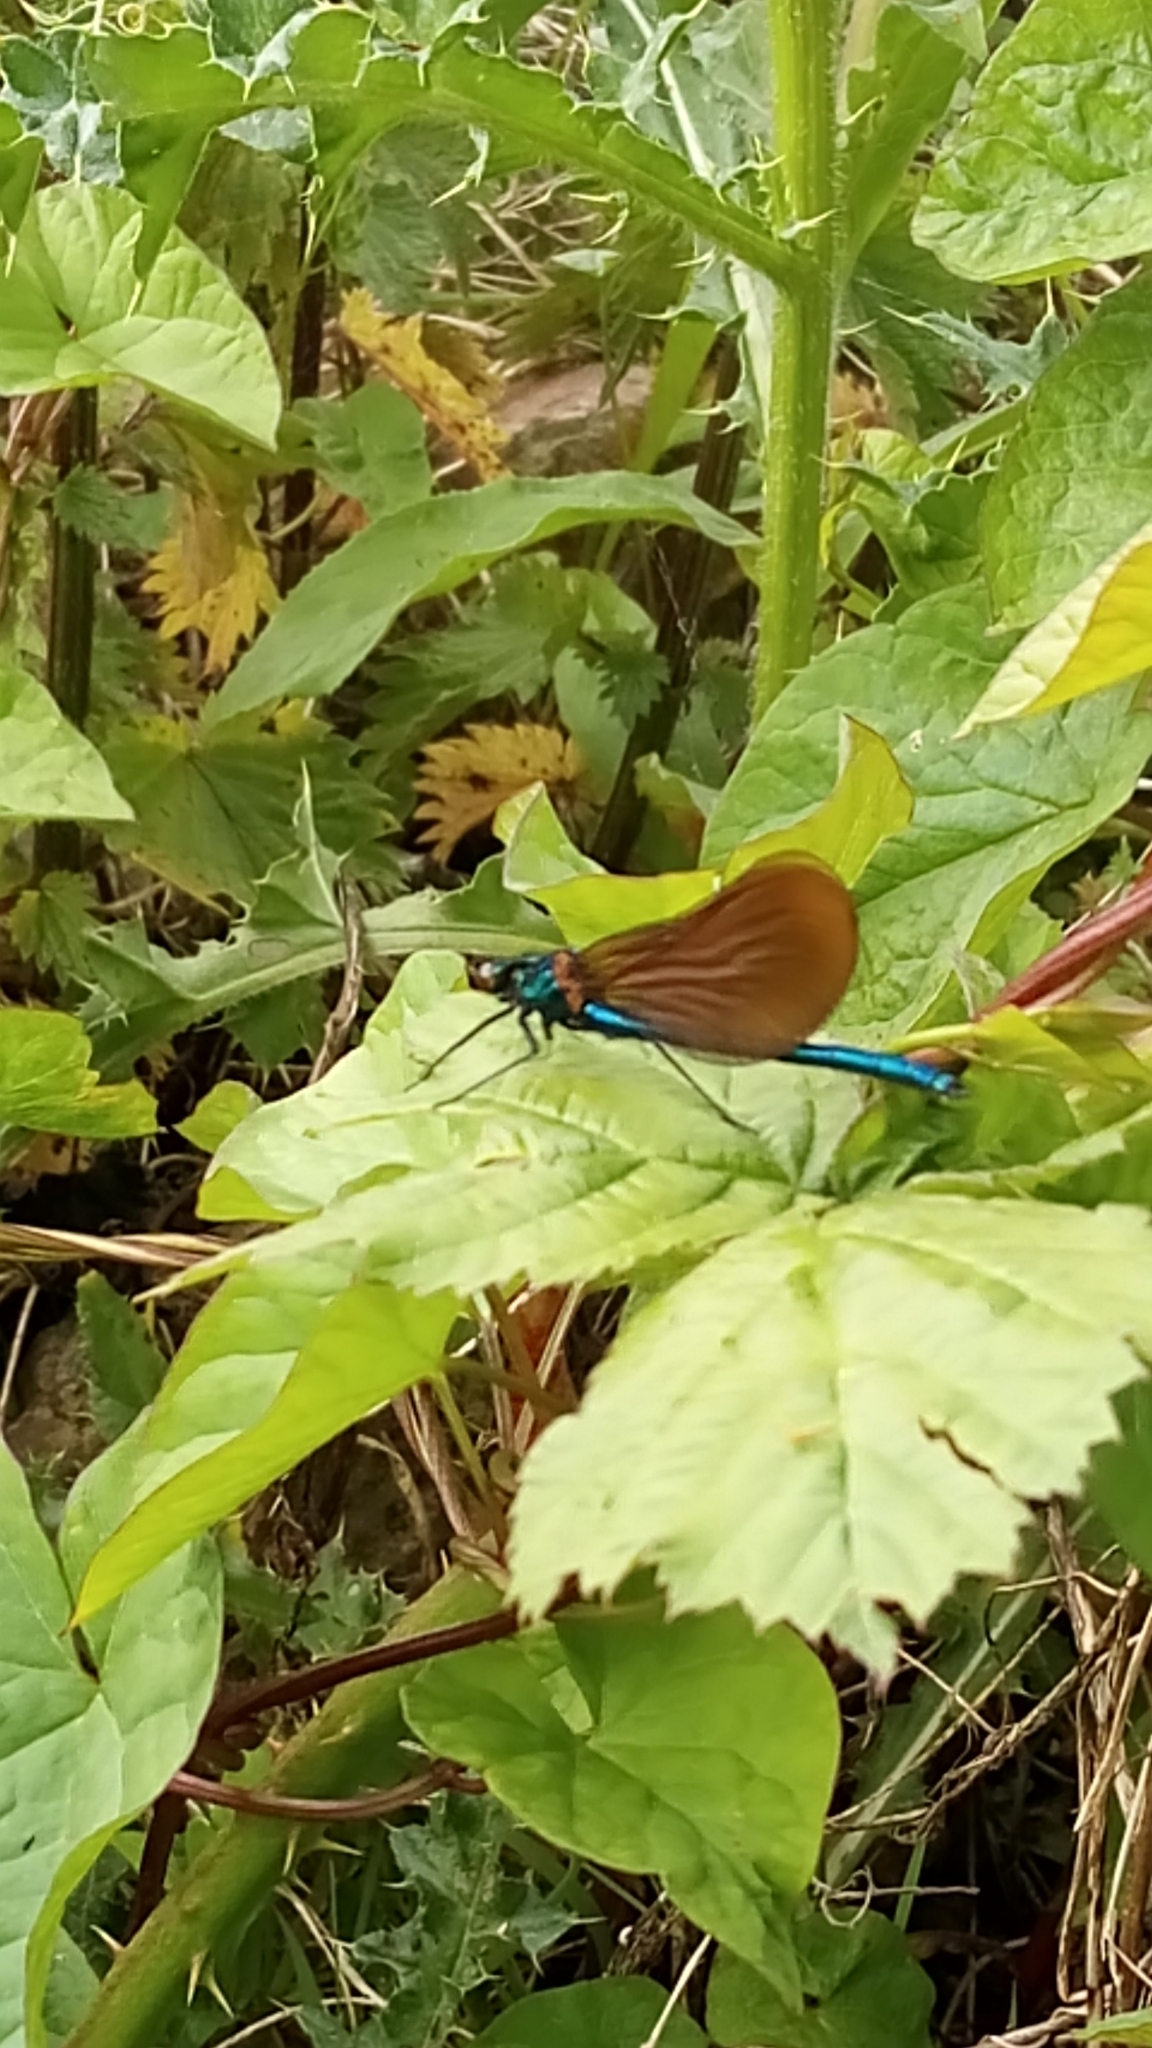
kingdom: Animalia
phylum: Arthropoda
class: Insecta
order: Odonata
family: Calopterygidae
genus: Calopteryx
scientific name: Calopteryx virgo
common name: Beautiful demoiselle
